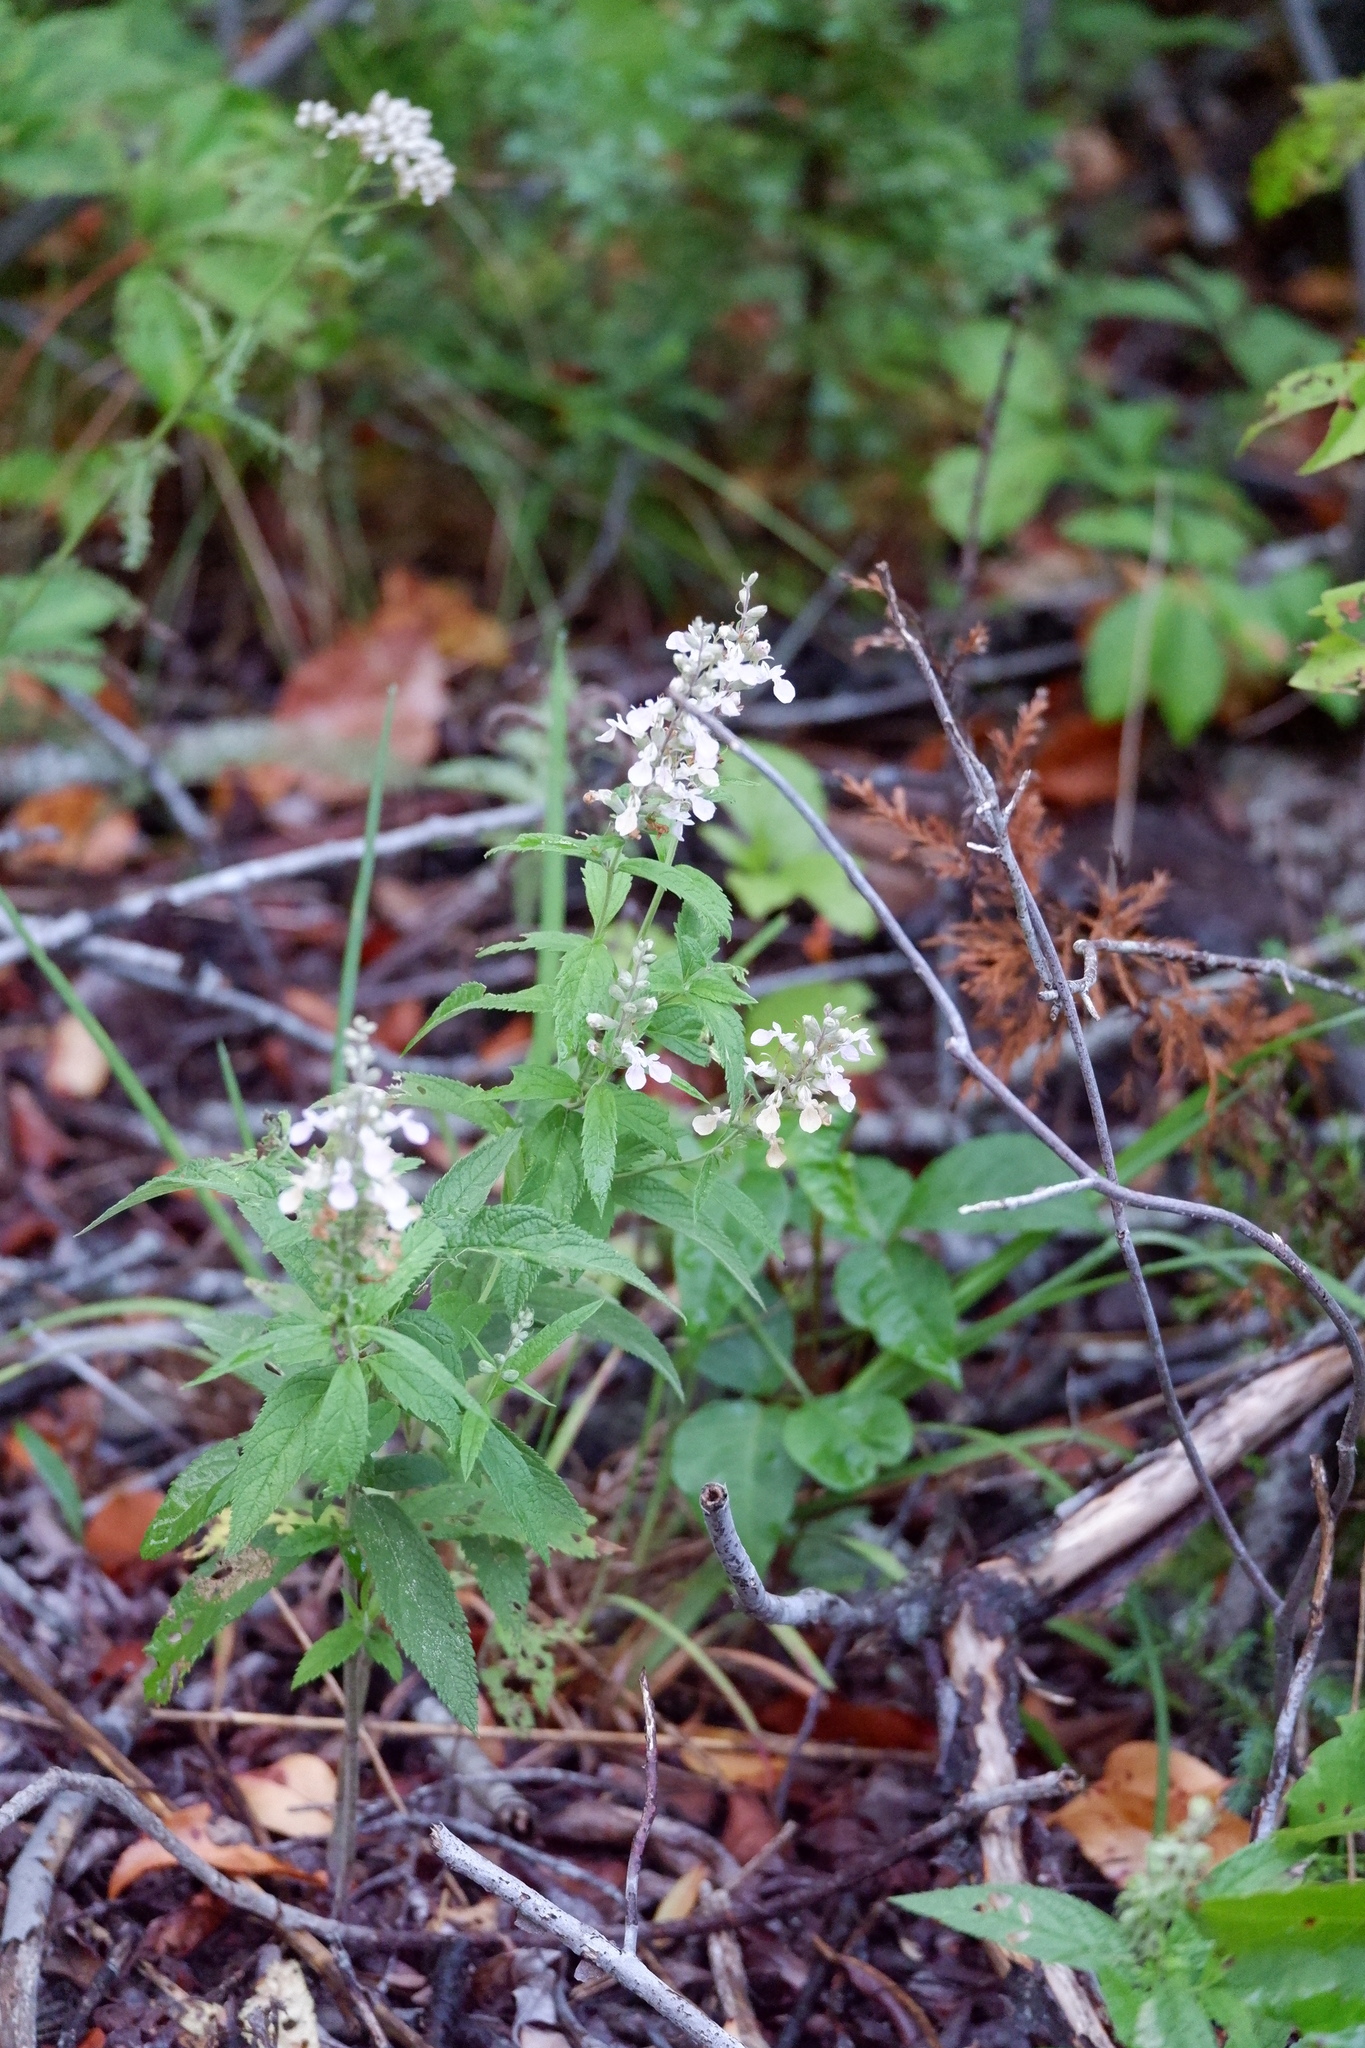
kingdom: Plantae
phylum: Tracheophyta
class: Magnoliopsida
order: Lamiales
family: Lamiaceae
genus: Teucrium
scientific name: Teucrium canadense
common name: American germander
